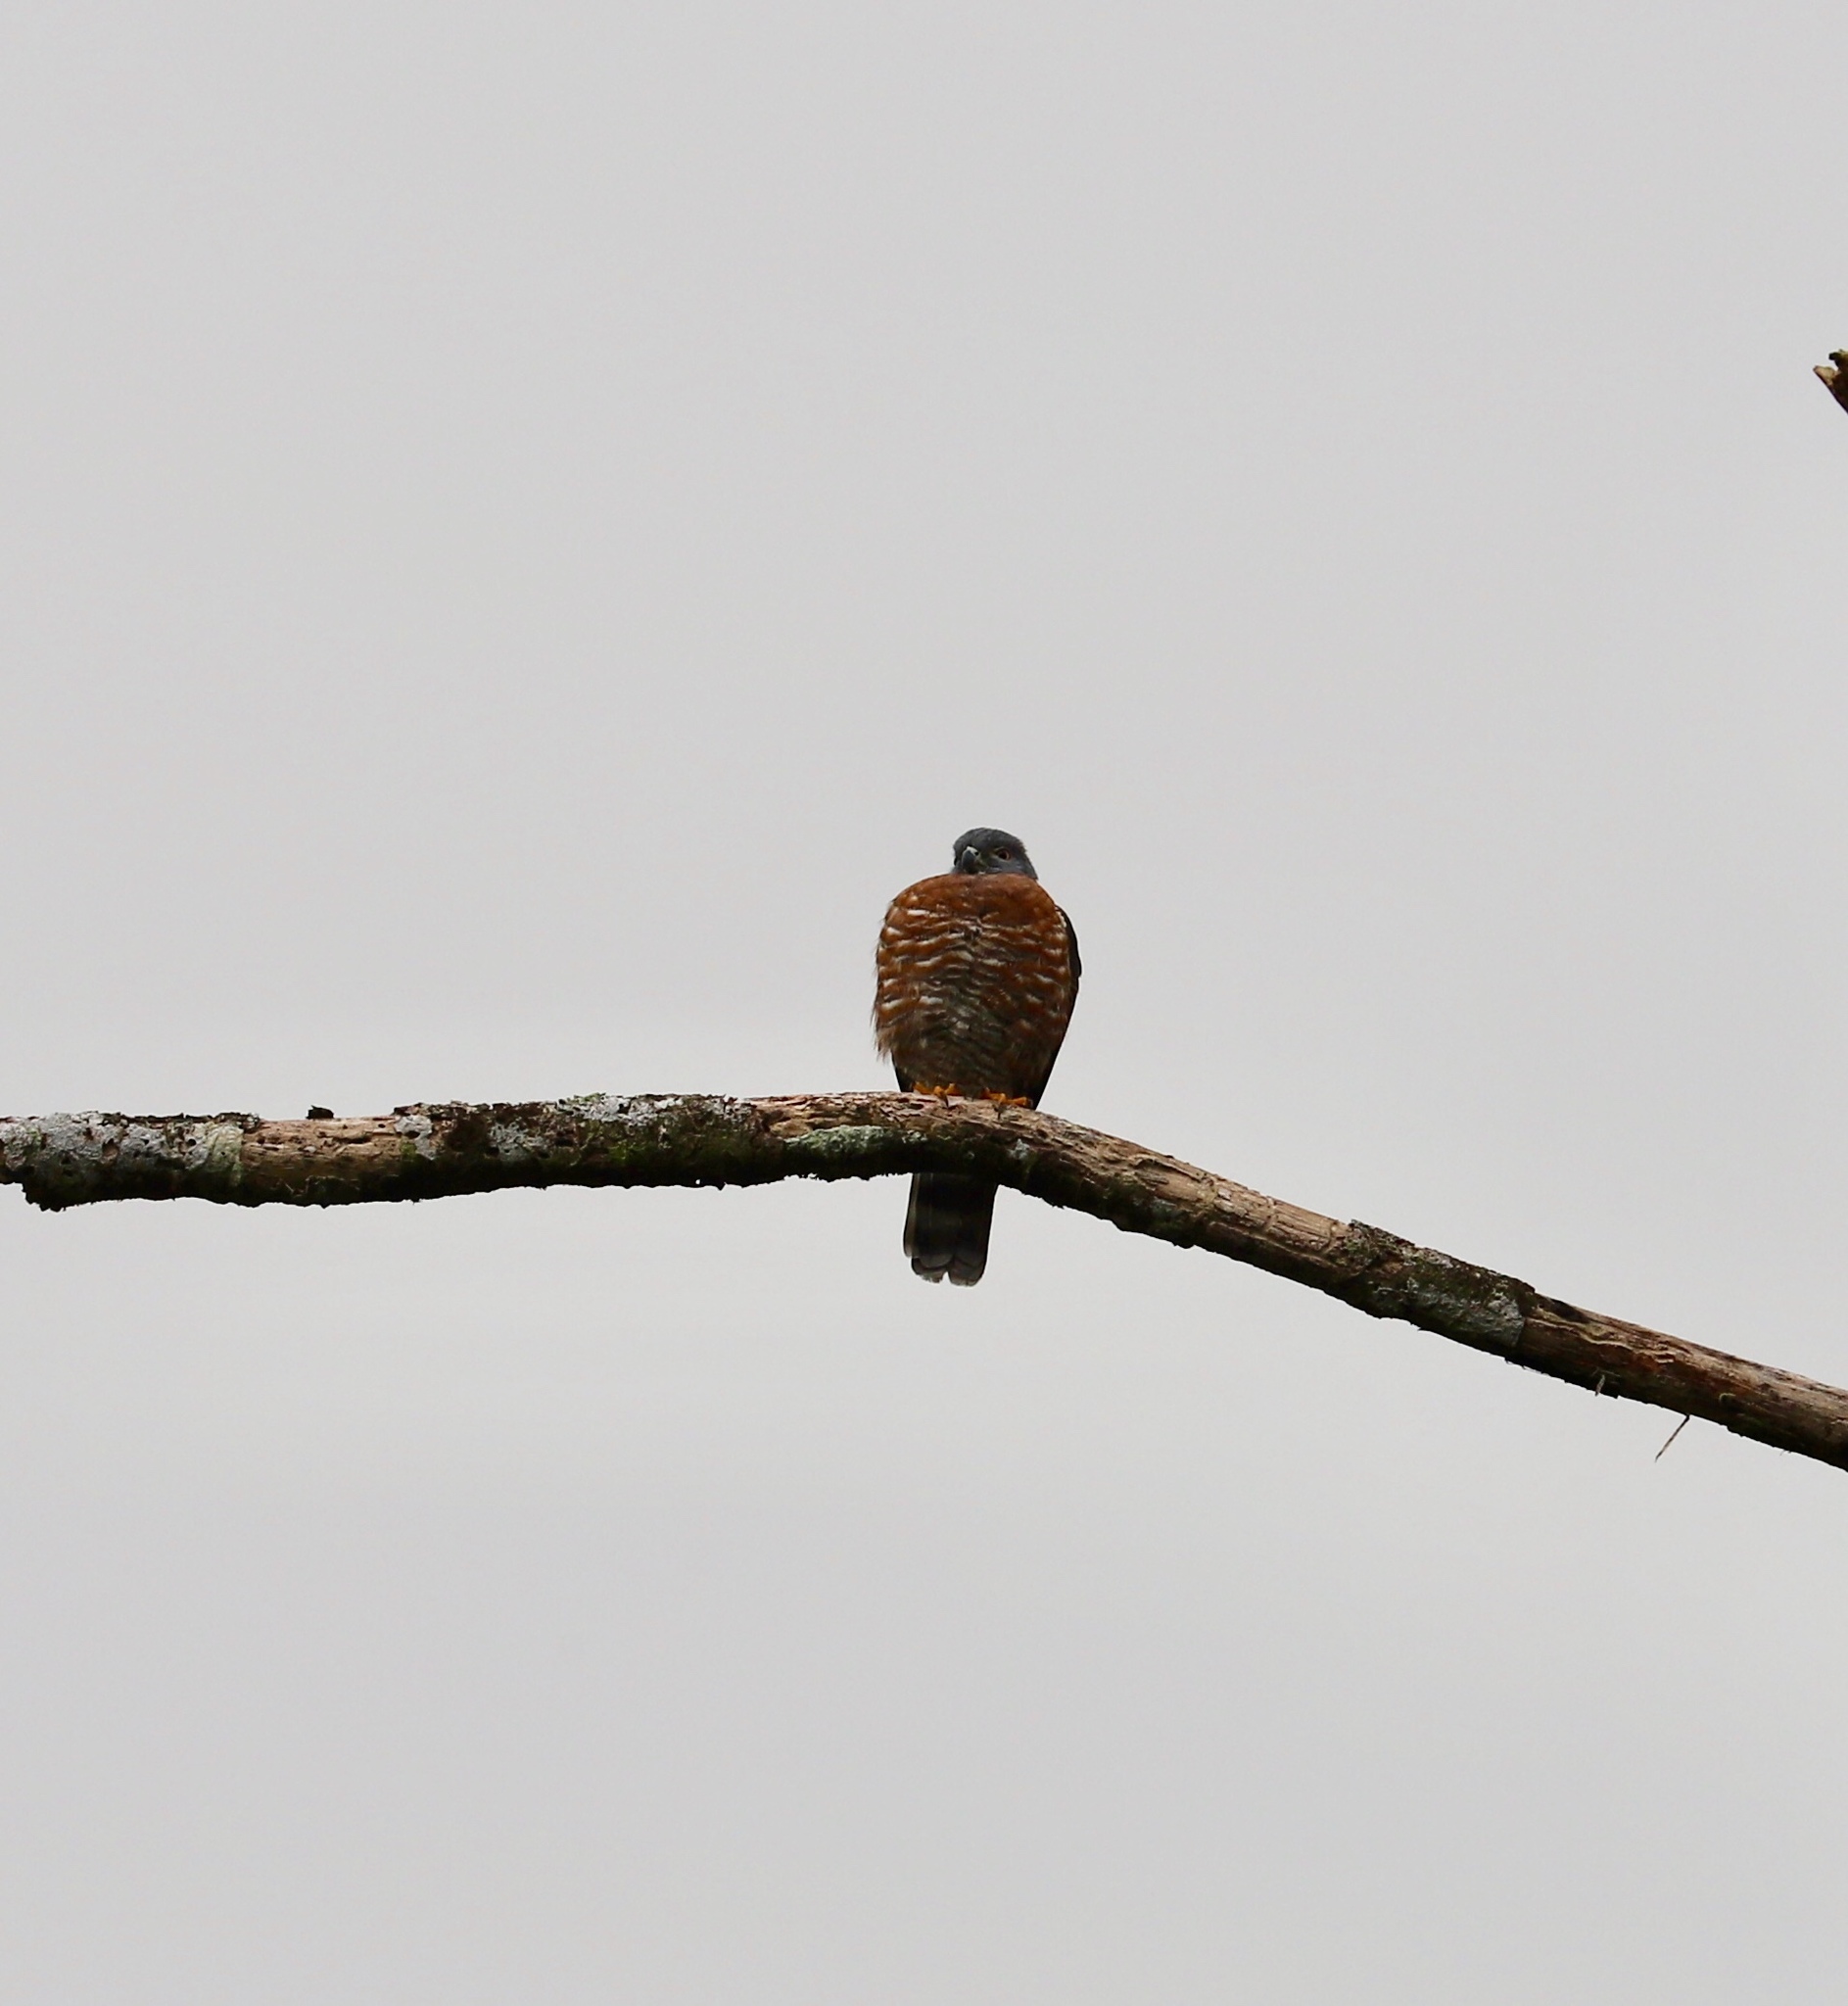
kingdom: Animalia
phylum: Chordata
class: Aves
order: Accipitriformes
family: Accipitridae
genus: Harpagus
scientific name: Harpagus bidentatus
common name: Double-toothed kite
